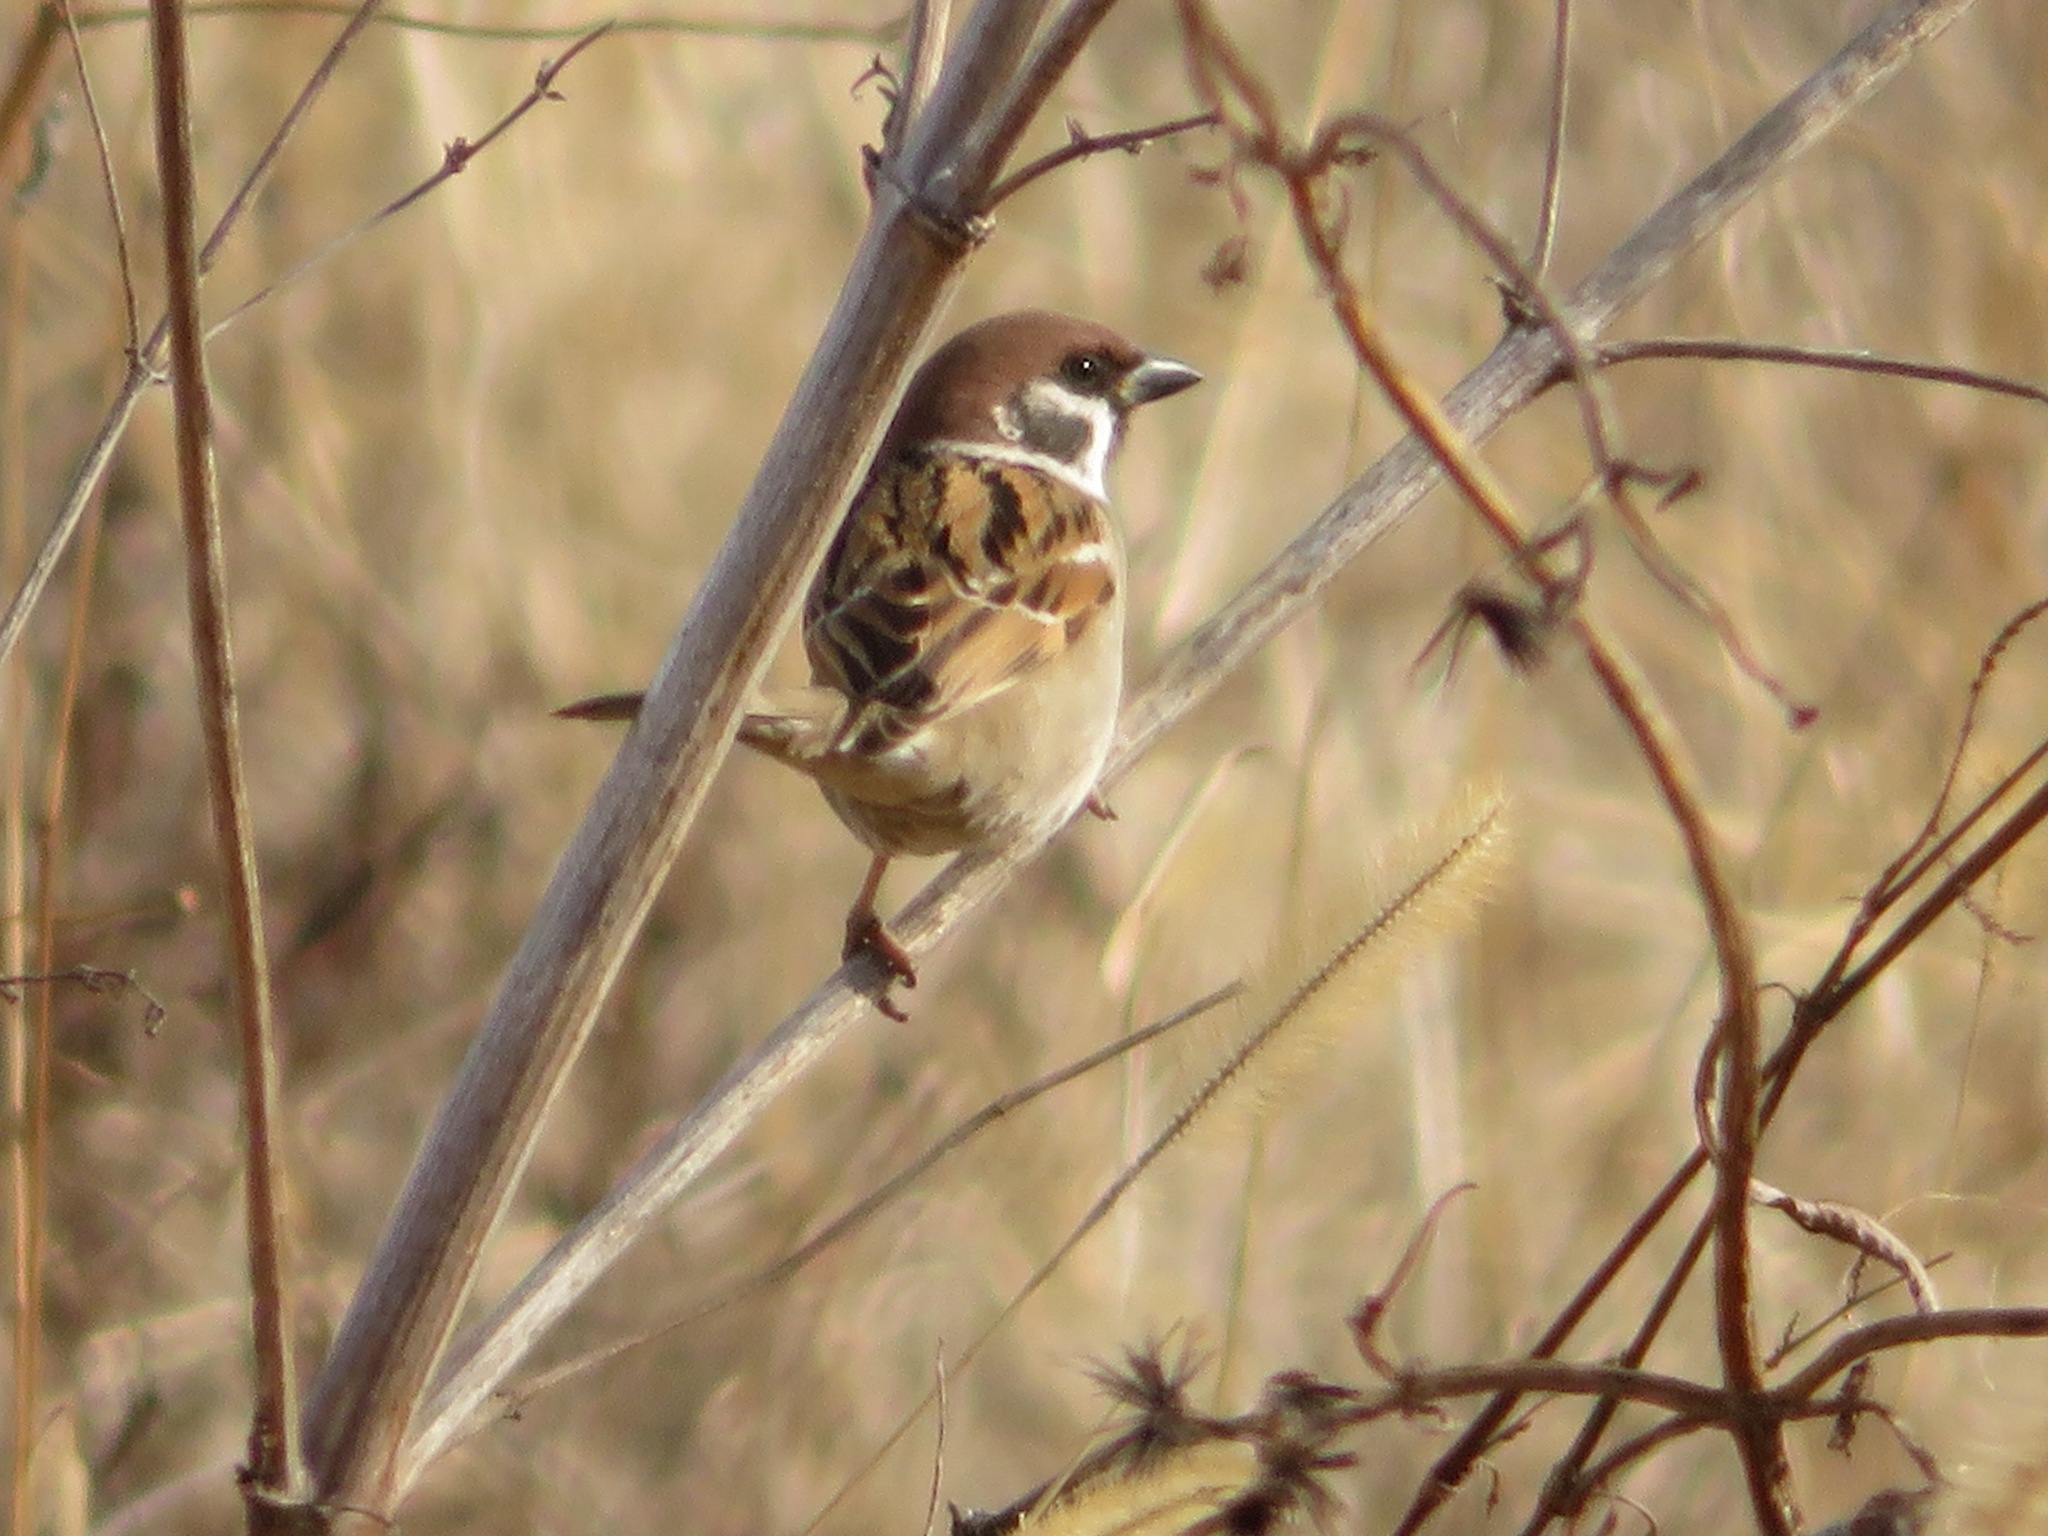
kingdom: Animalia
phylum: Chordata
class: Aves
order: Passeriformes
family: Passeridae
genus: Passer
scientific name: Passer montanus
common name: Eurasian tree sparrow
